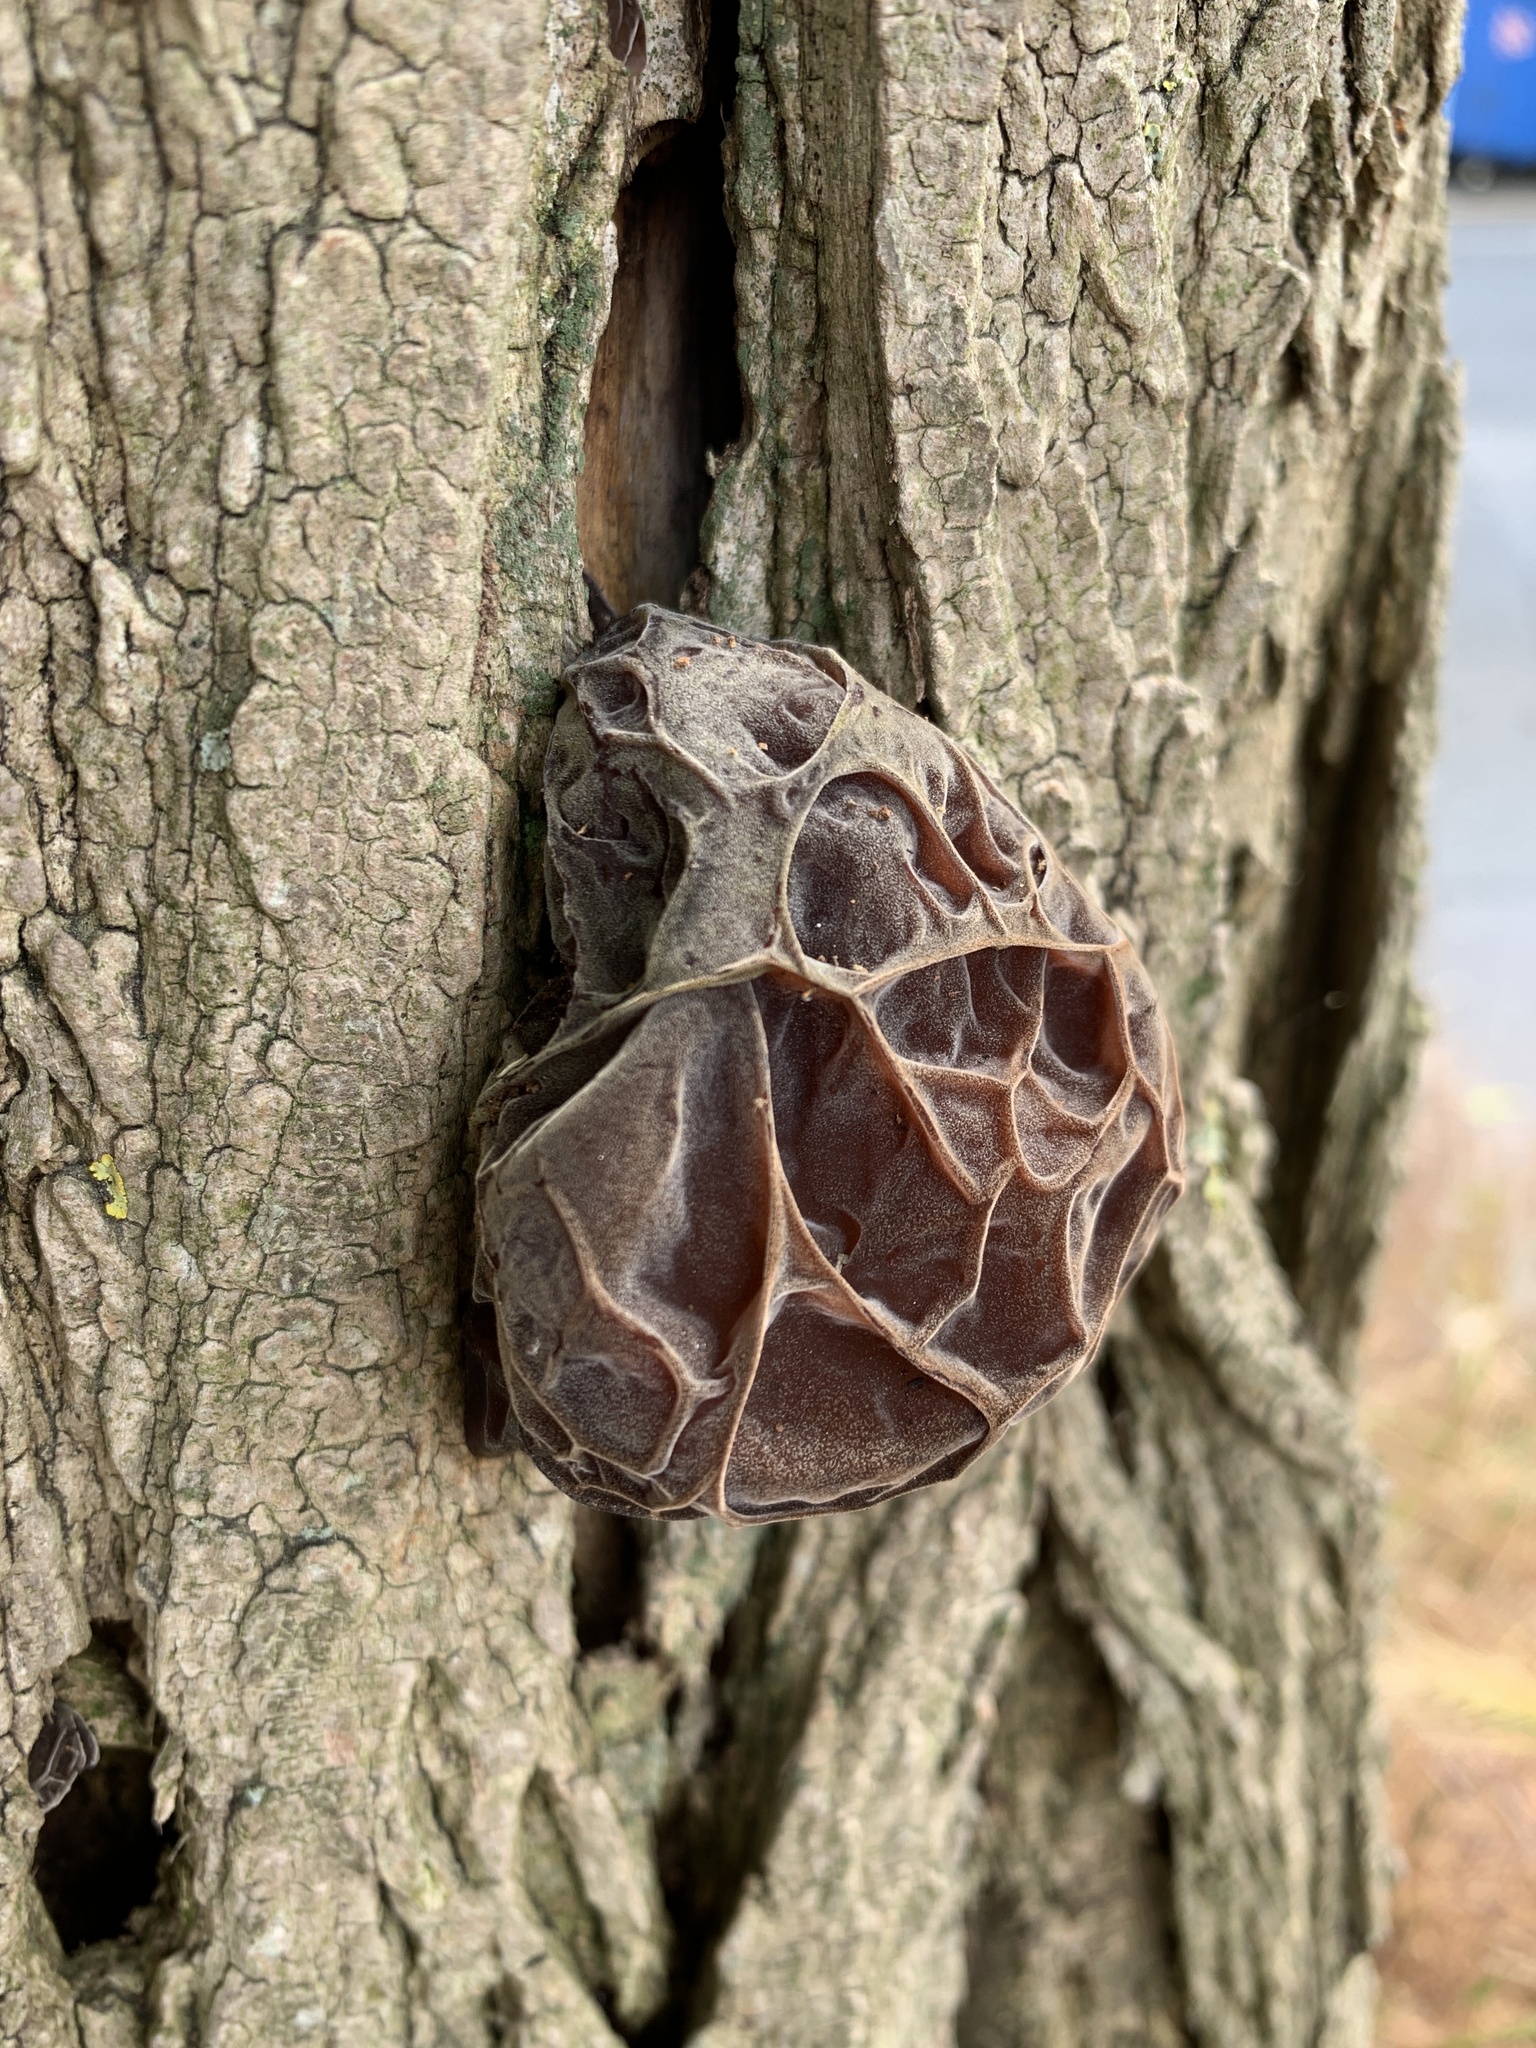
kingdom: Fungi
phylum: Basidiomycota
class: Agaricomycetes
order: Auriculariales
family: Auriculariaceae
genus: Auricularia
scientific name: Auricularia auricula-judae
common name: Jelly ear
